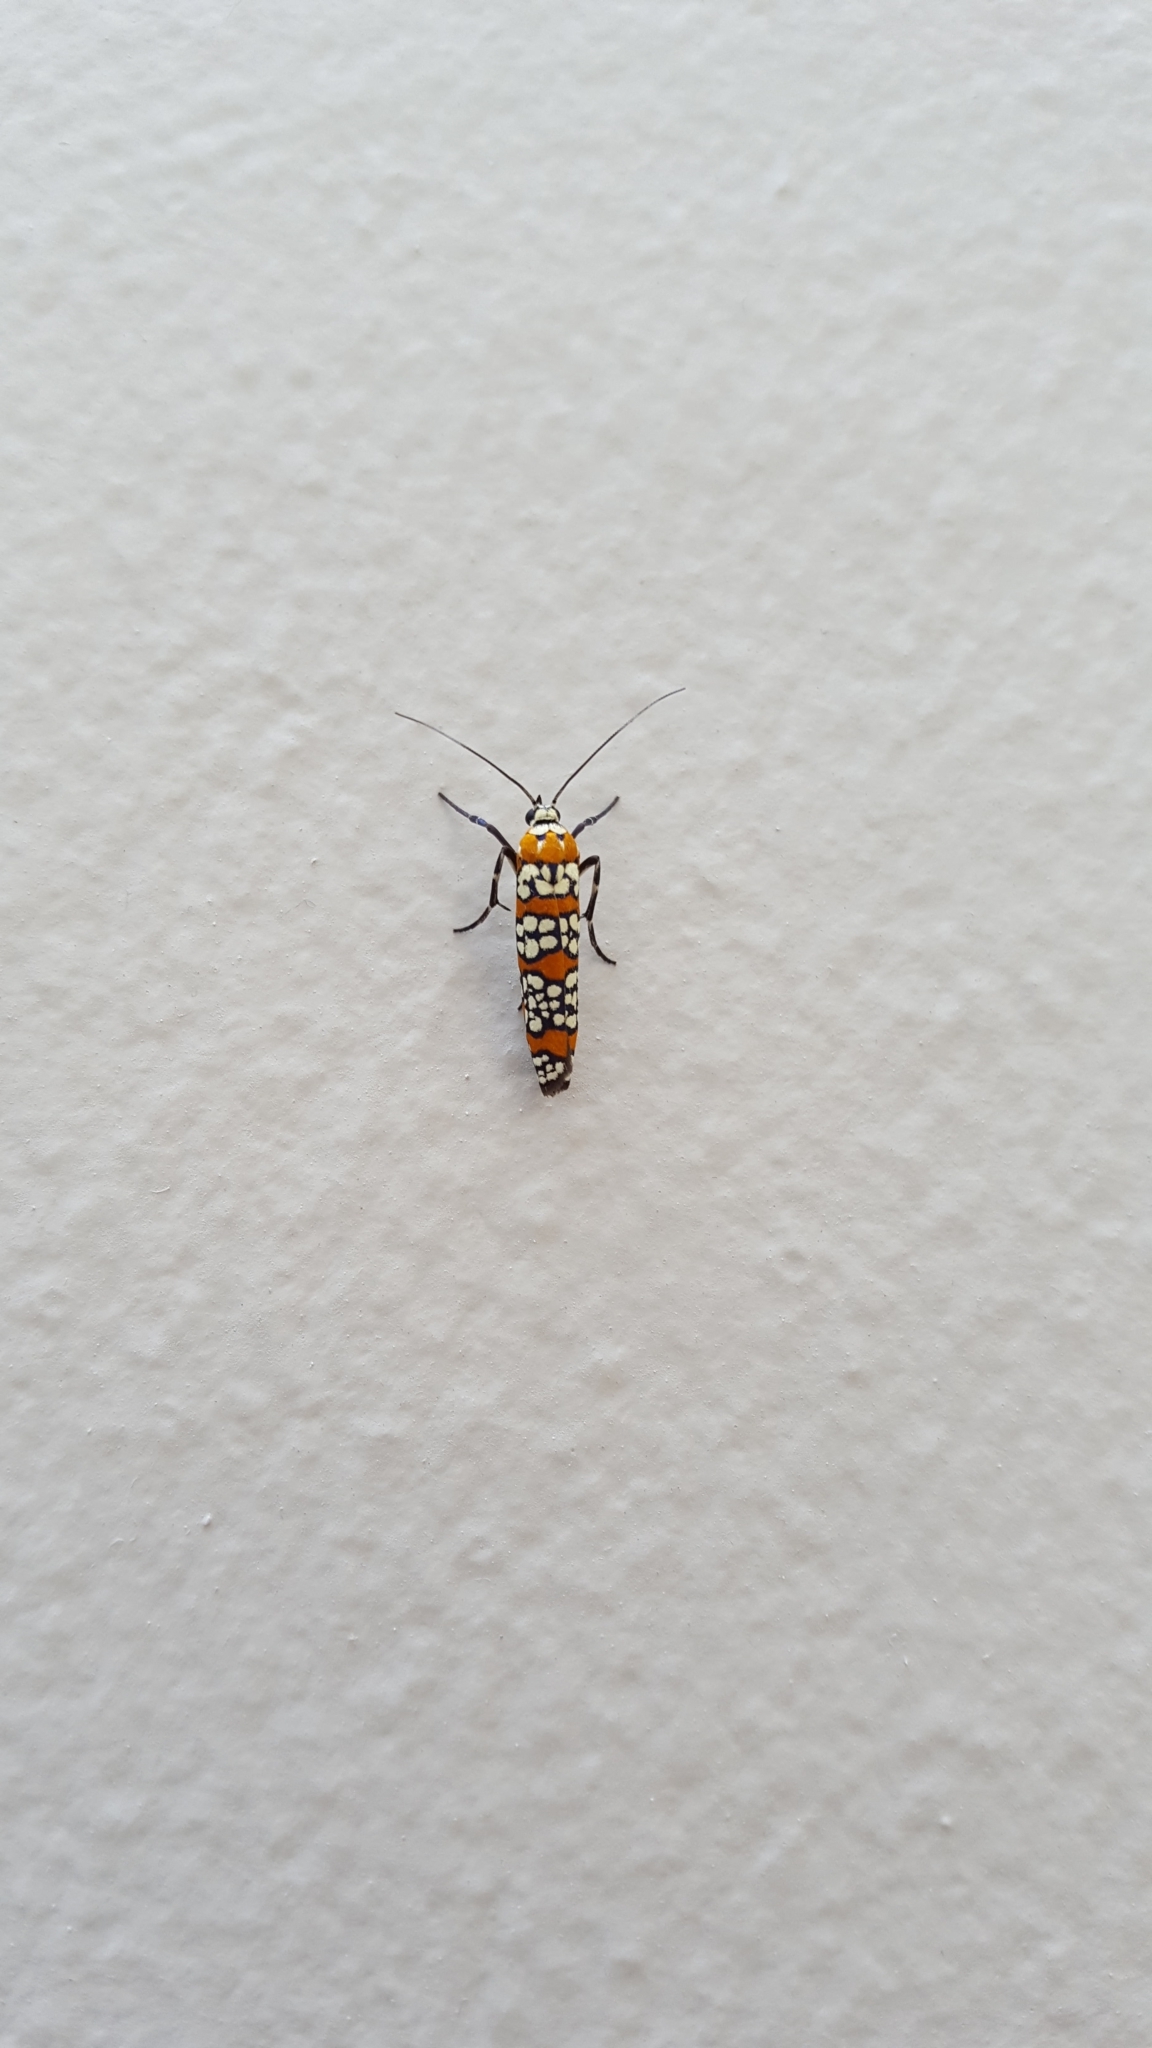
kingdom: Animalia
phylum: Arthropoda
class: Insecta
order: Lepidoptera
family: Attevidae
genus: Atteva
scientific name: Atteva punctella
